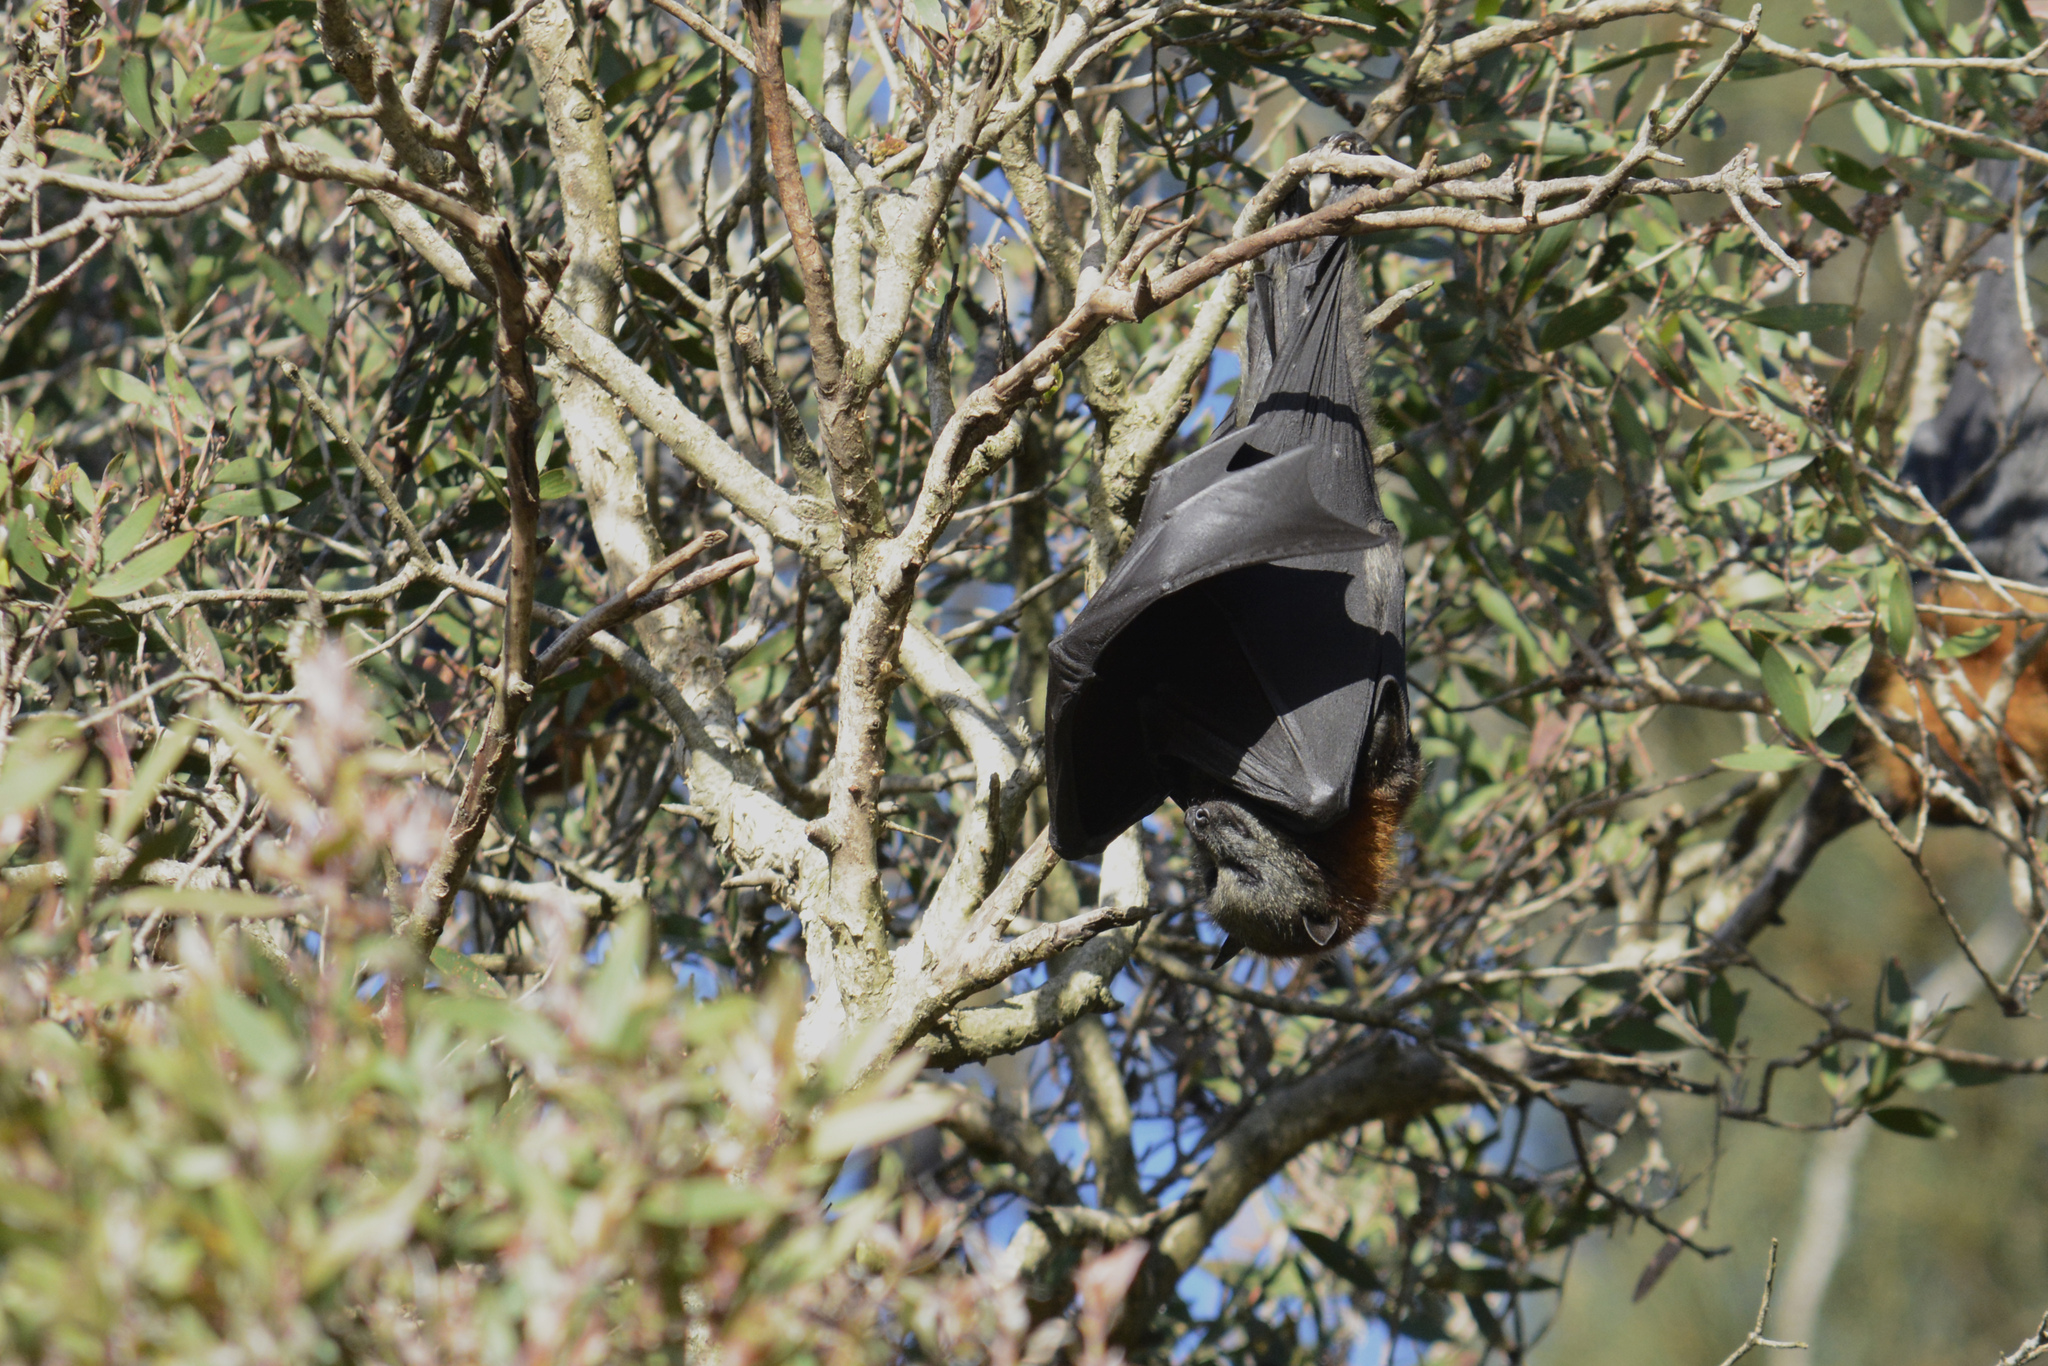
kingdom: Animalia
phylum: Chordata
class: Mammalia
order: Chiroptera
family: Pteropodidae
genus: Pteropus
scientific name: Pteropus poliocephalus
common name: Gray-headed flying fox
